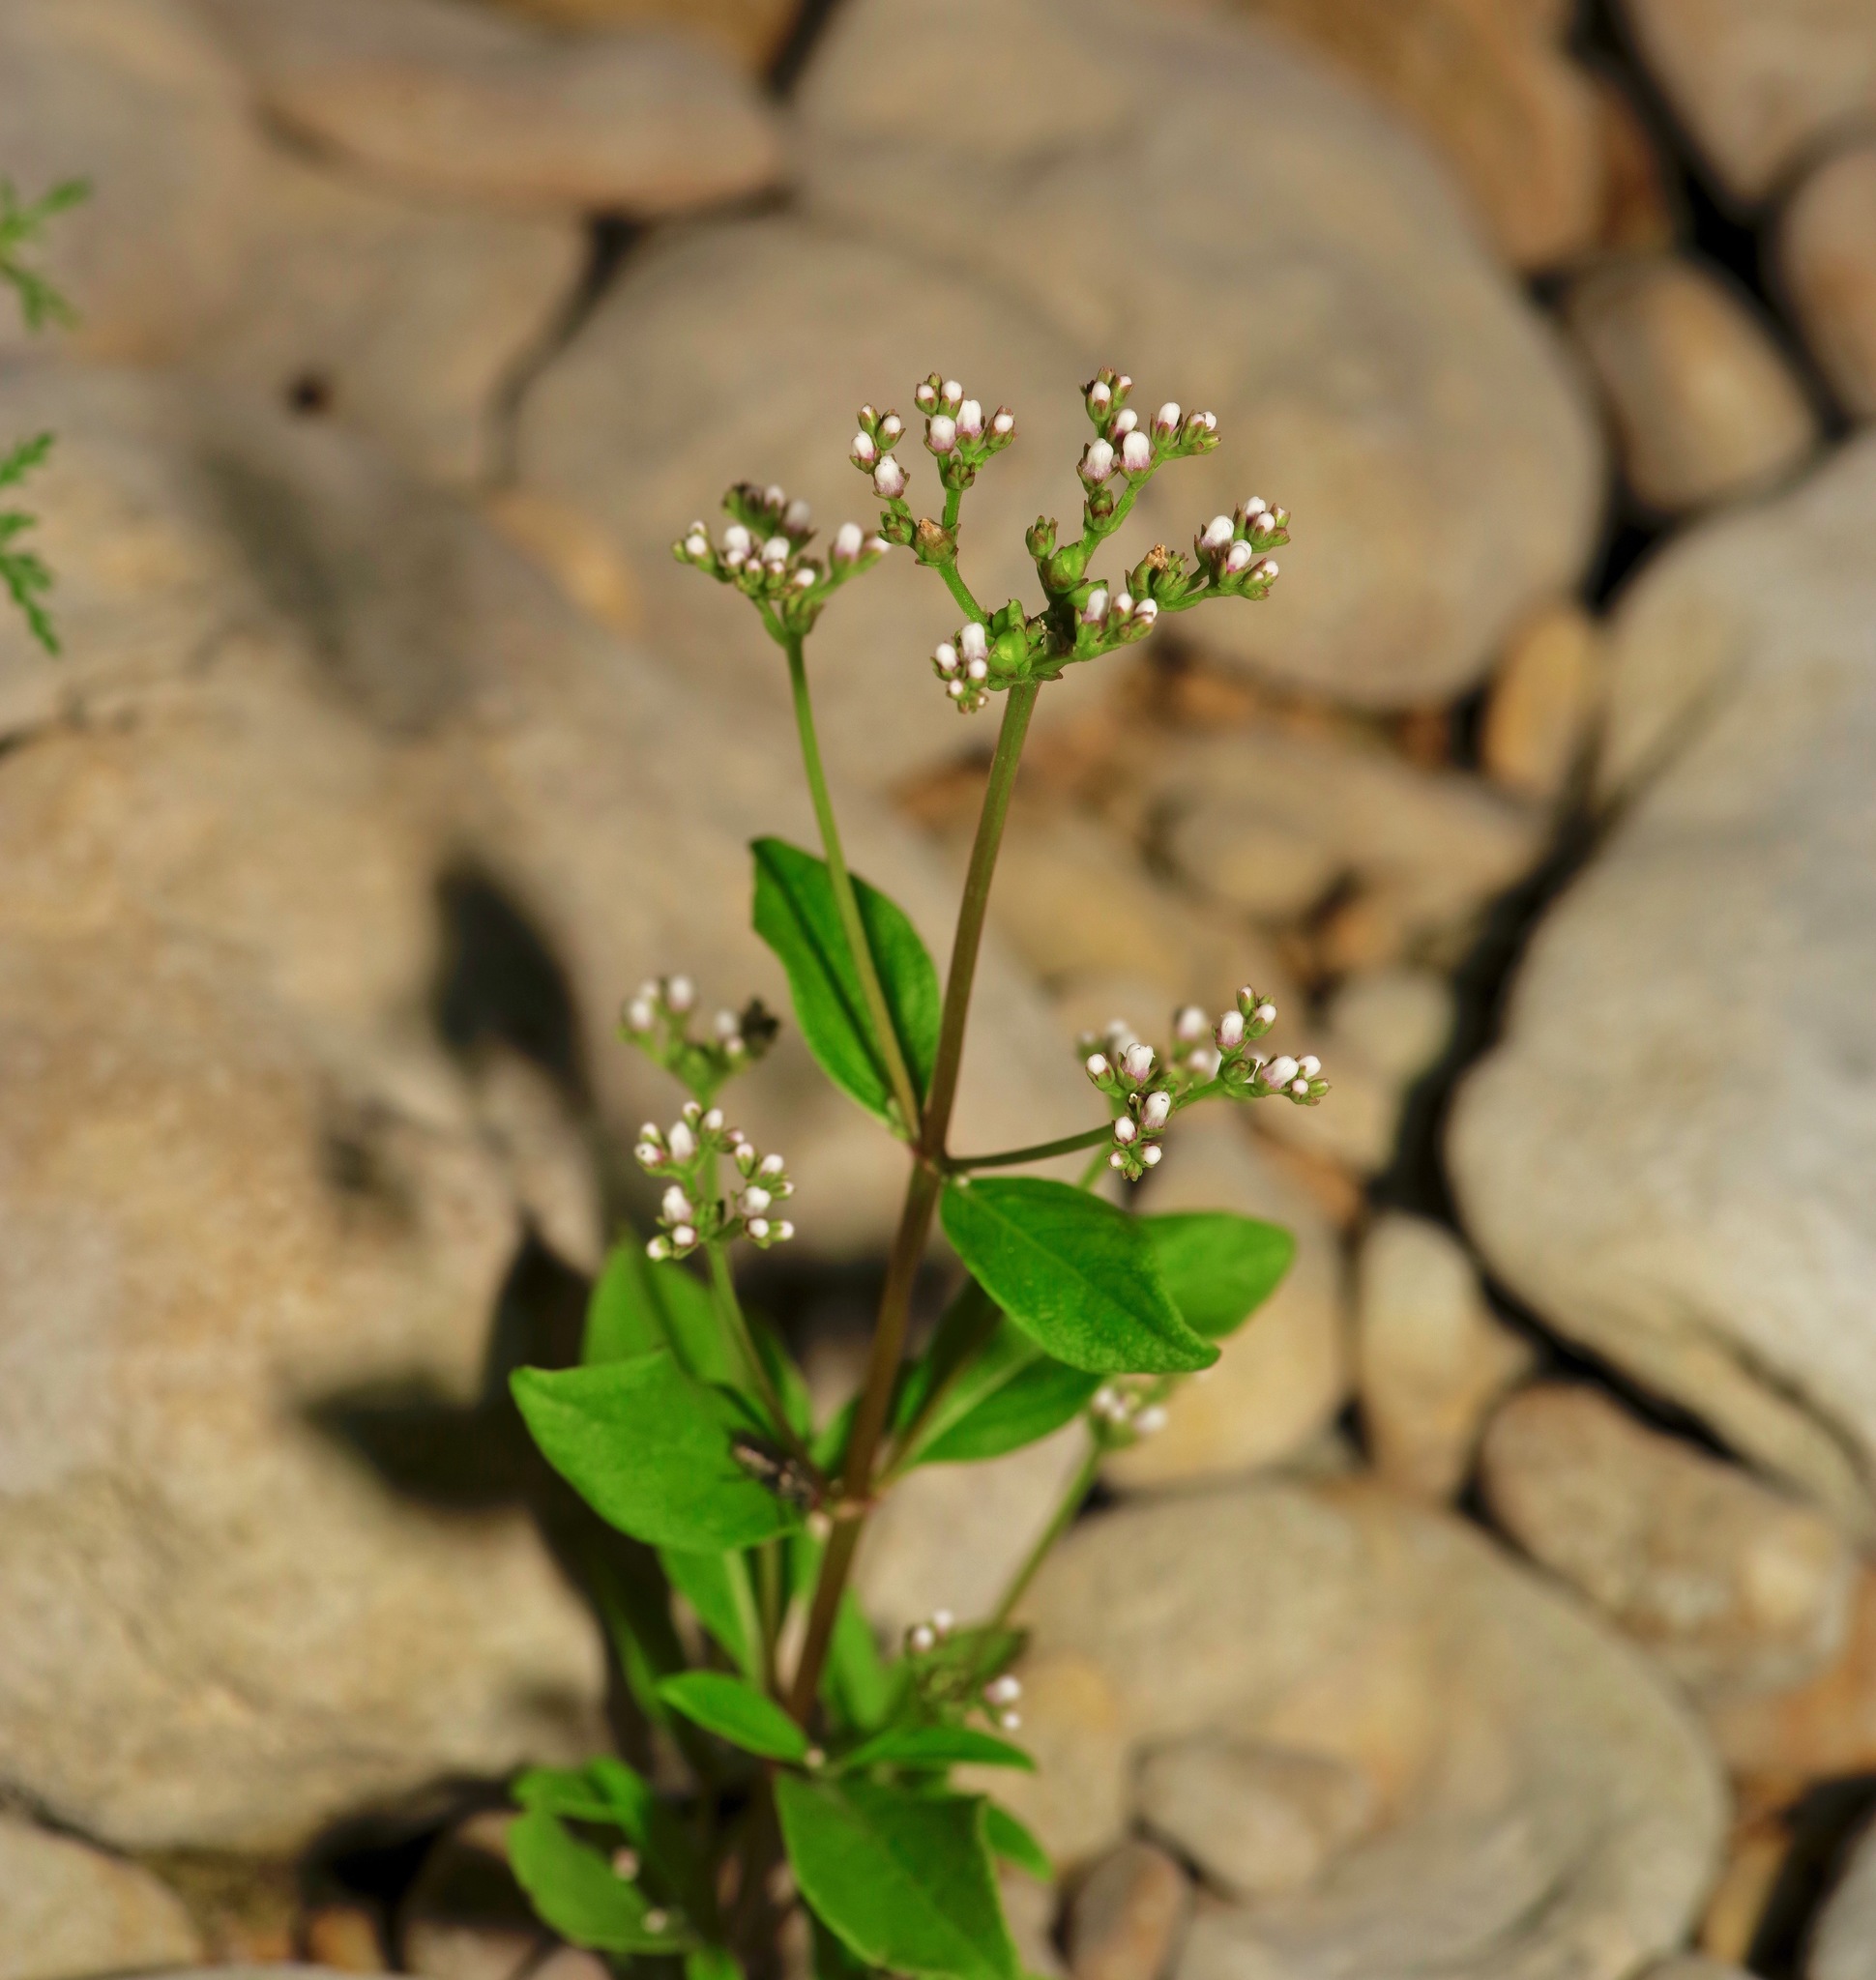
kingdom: Plantae
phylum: Tracheophyta
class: Magnoliopsida
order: Gentianales
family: Loganiaceae
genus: Mitreola
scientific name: Mitreola petiolata
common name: Lax hornpod
